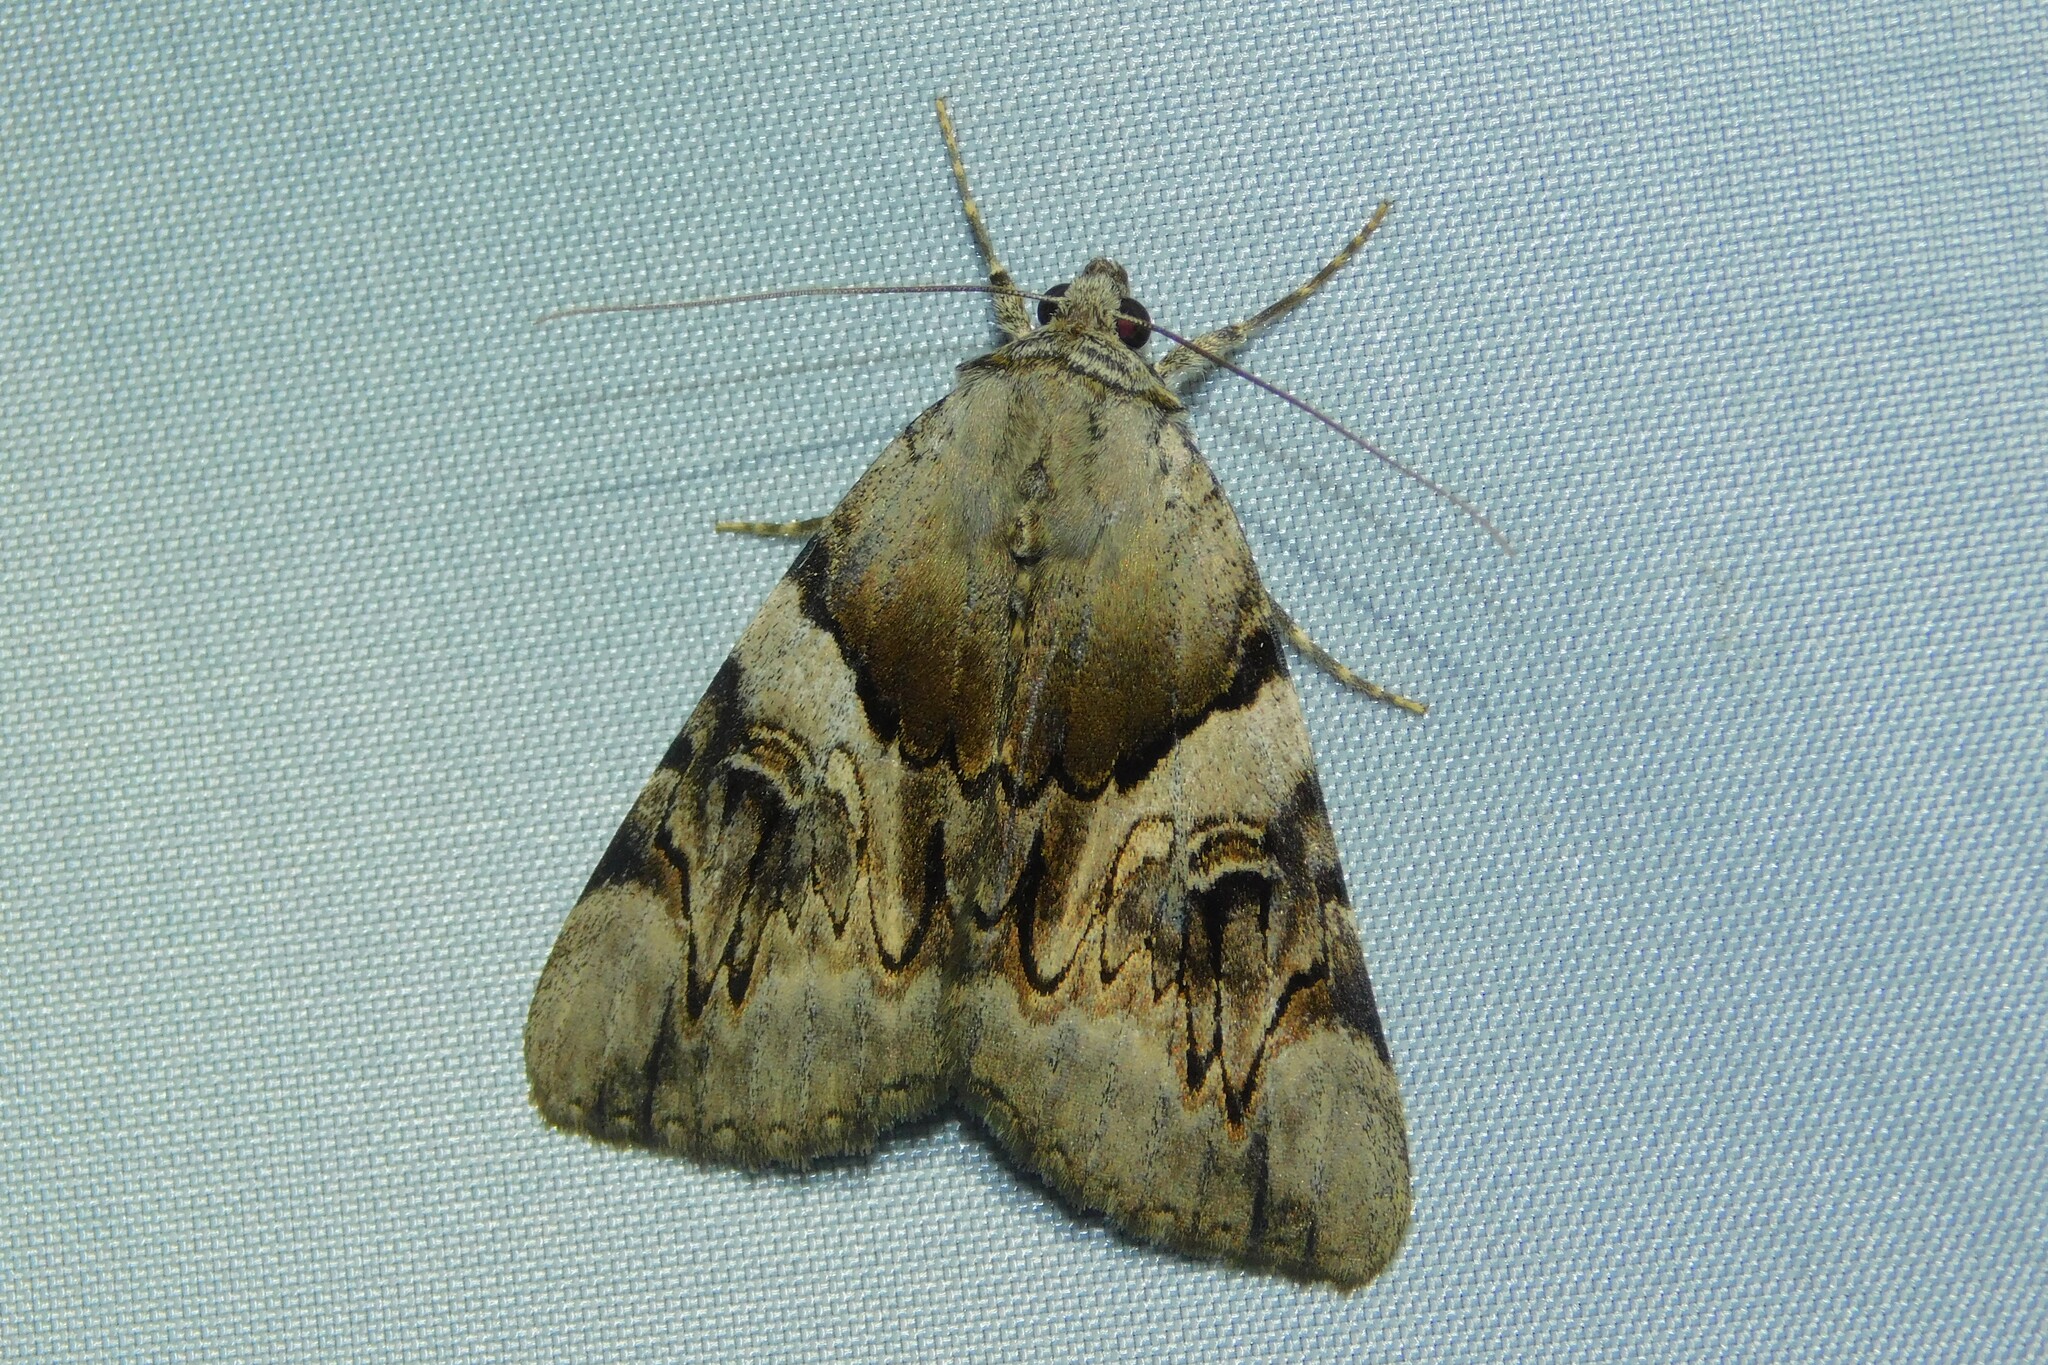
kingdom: Animalia
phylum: Arthropoda
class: Insecta
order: Lepidoptera
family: Erebidae
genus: Catocala
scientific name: Catocala fulminea
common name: Yellow bands underwing
